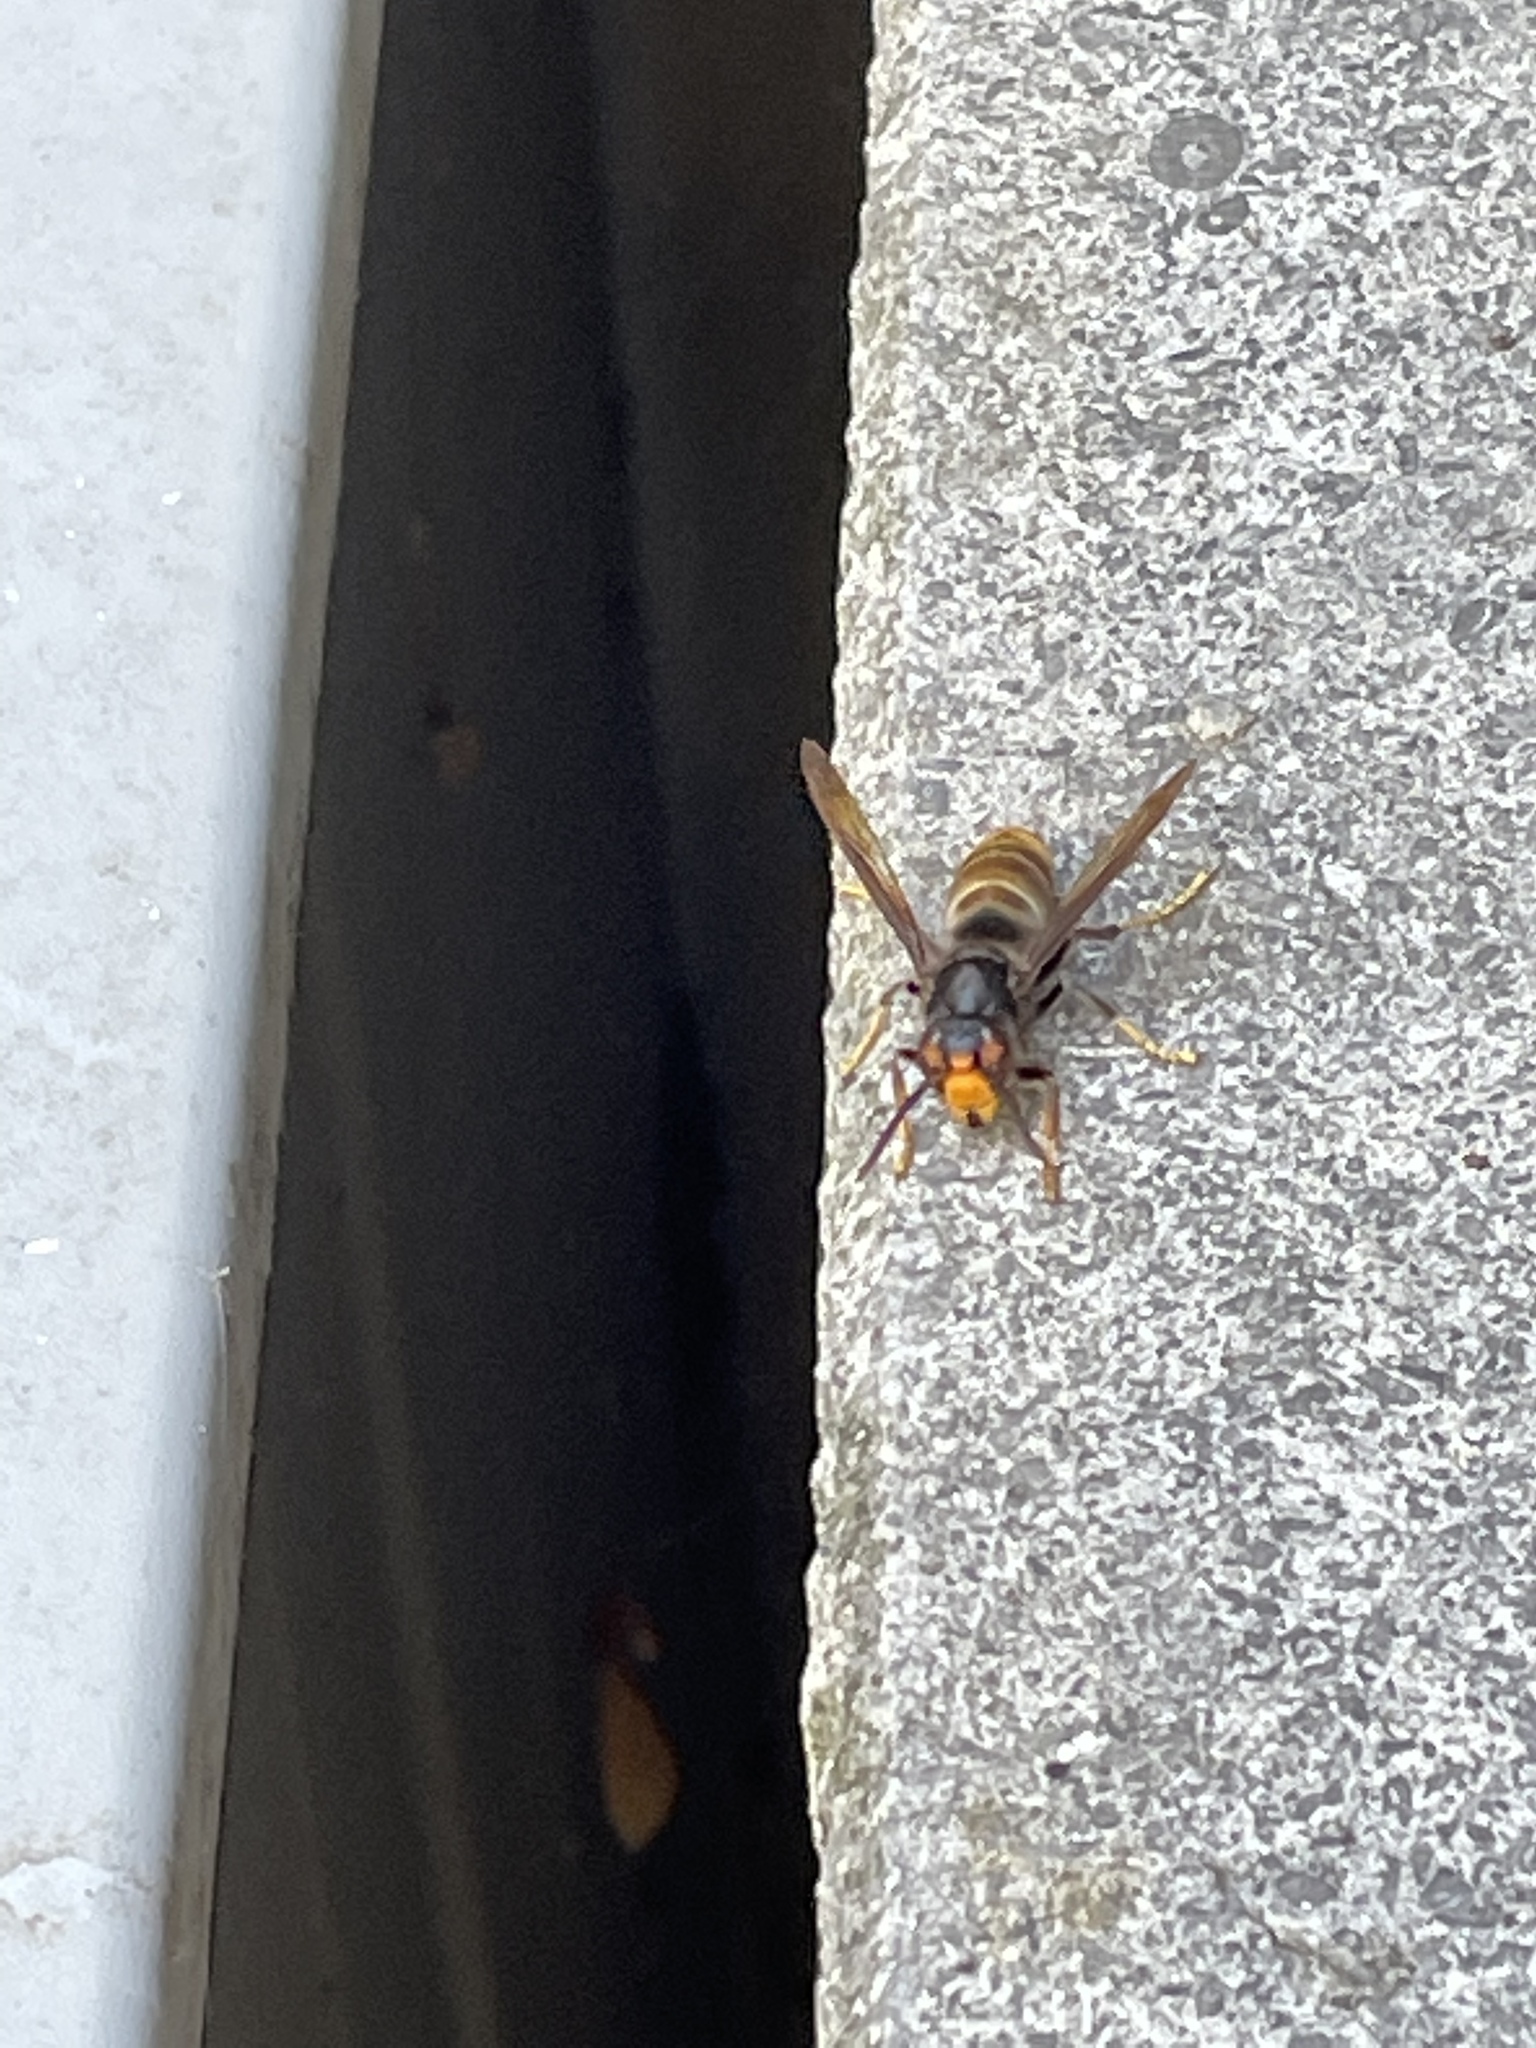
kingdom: Animalia
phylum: Arthropoda
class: Insecta
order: Hymenoptera
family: Vespidae
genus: Vespa
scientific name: Vespa velutina
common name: Asian hornet
